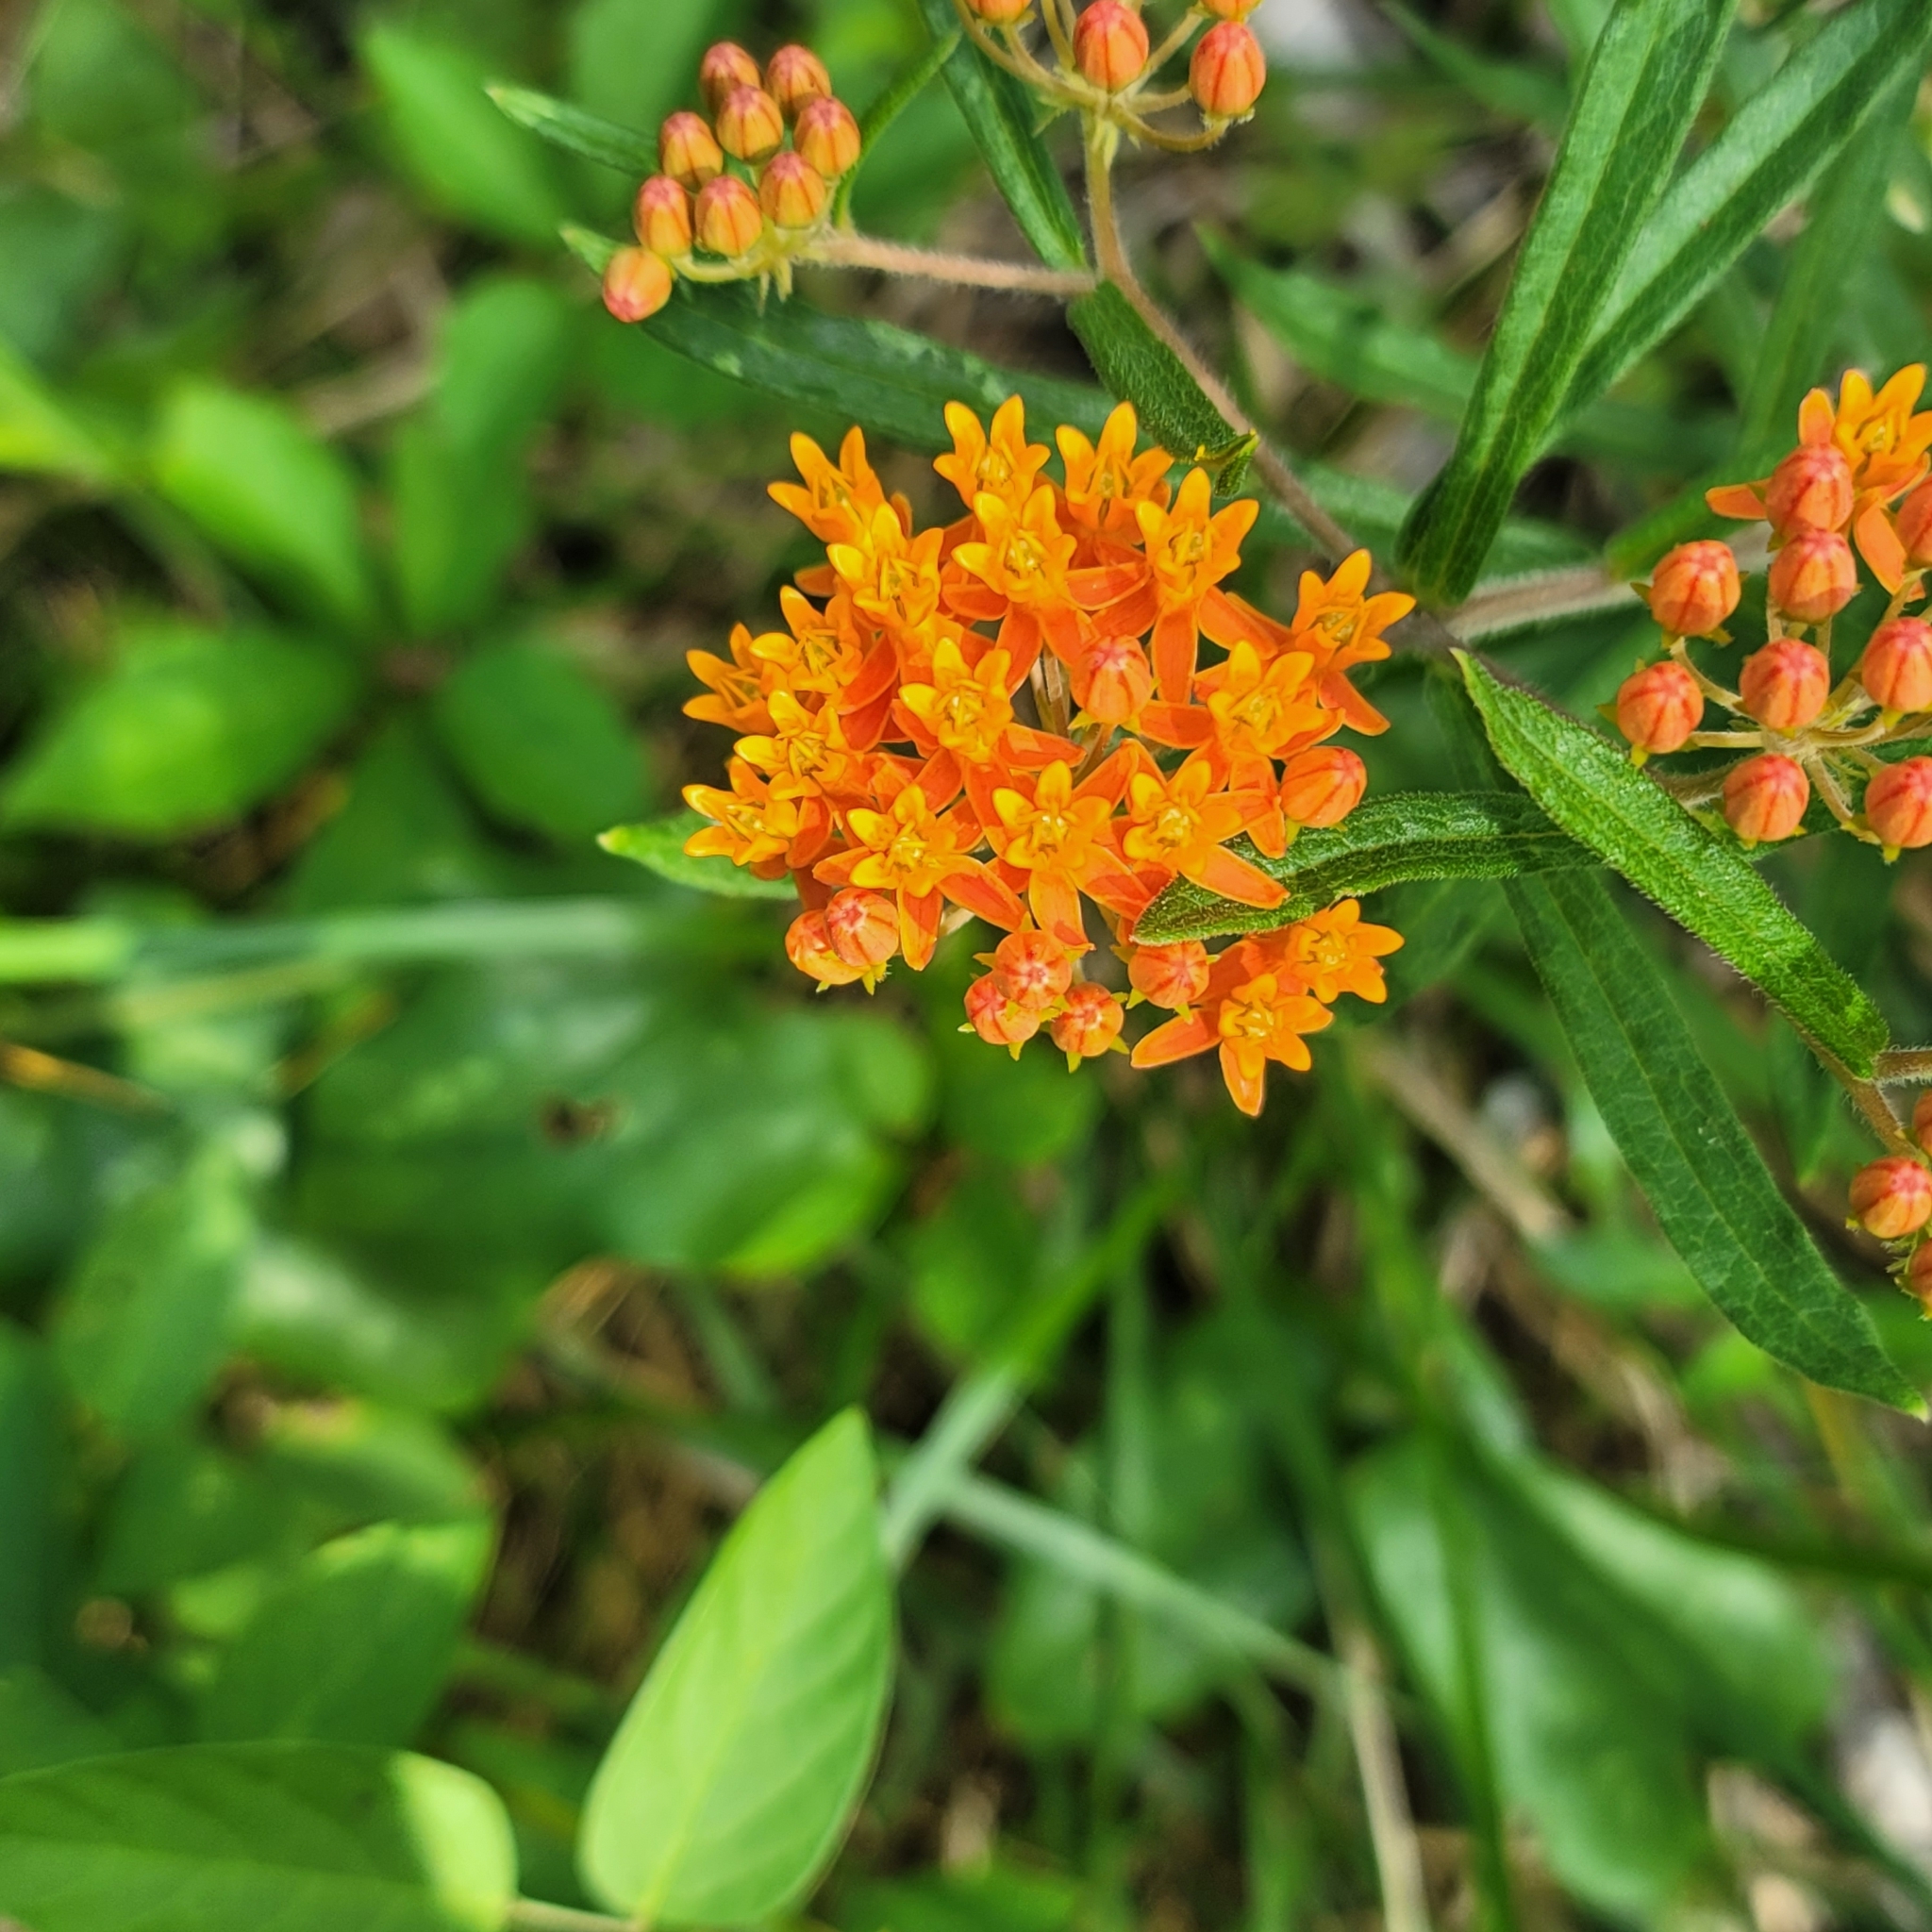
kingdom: Plantae
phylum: Tracheophyta
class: Magnoliopsida
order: Gentianales
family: Apocynaceae
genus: Asclepias
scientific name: Asclepias tuberosa
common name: Butterfly milkweed
